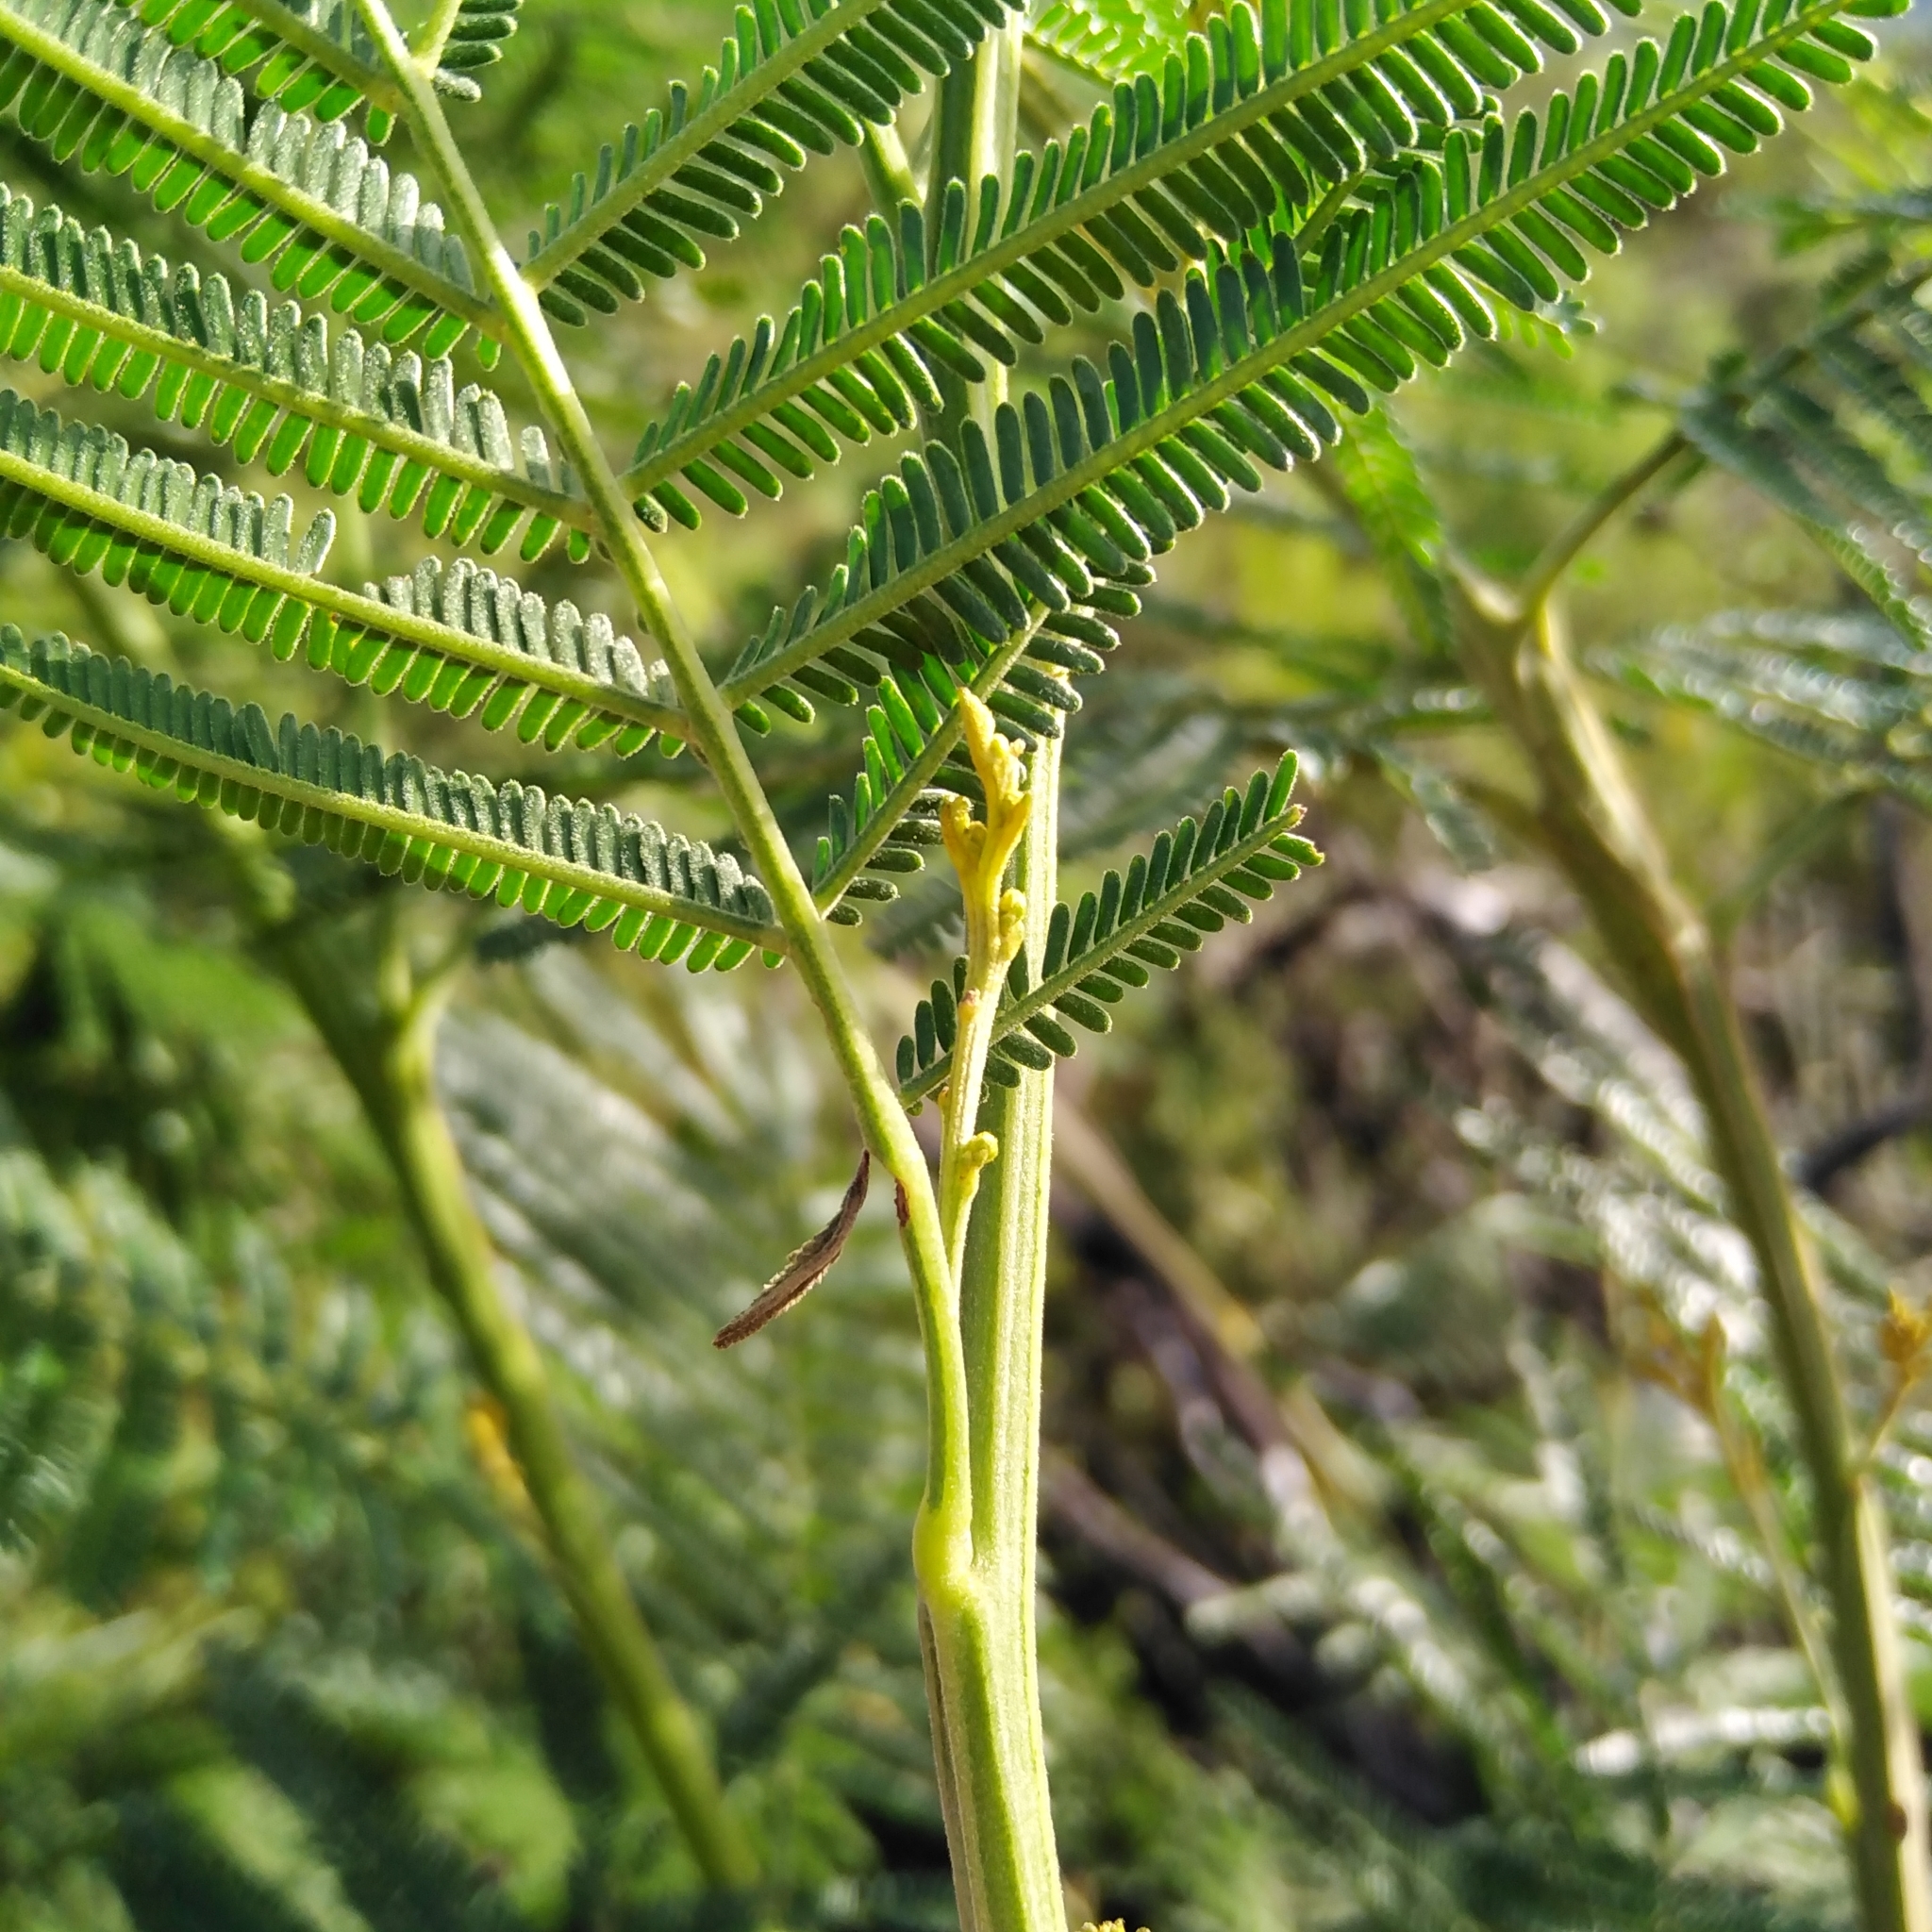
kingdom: Plantae
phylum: Tracheophyta
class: Magnoliopsida
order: Fabales
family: Fabaceae
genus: Acacia
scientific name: Acacia mearnsii
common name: Black wattle
